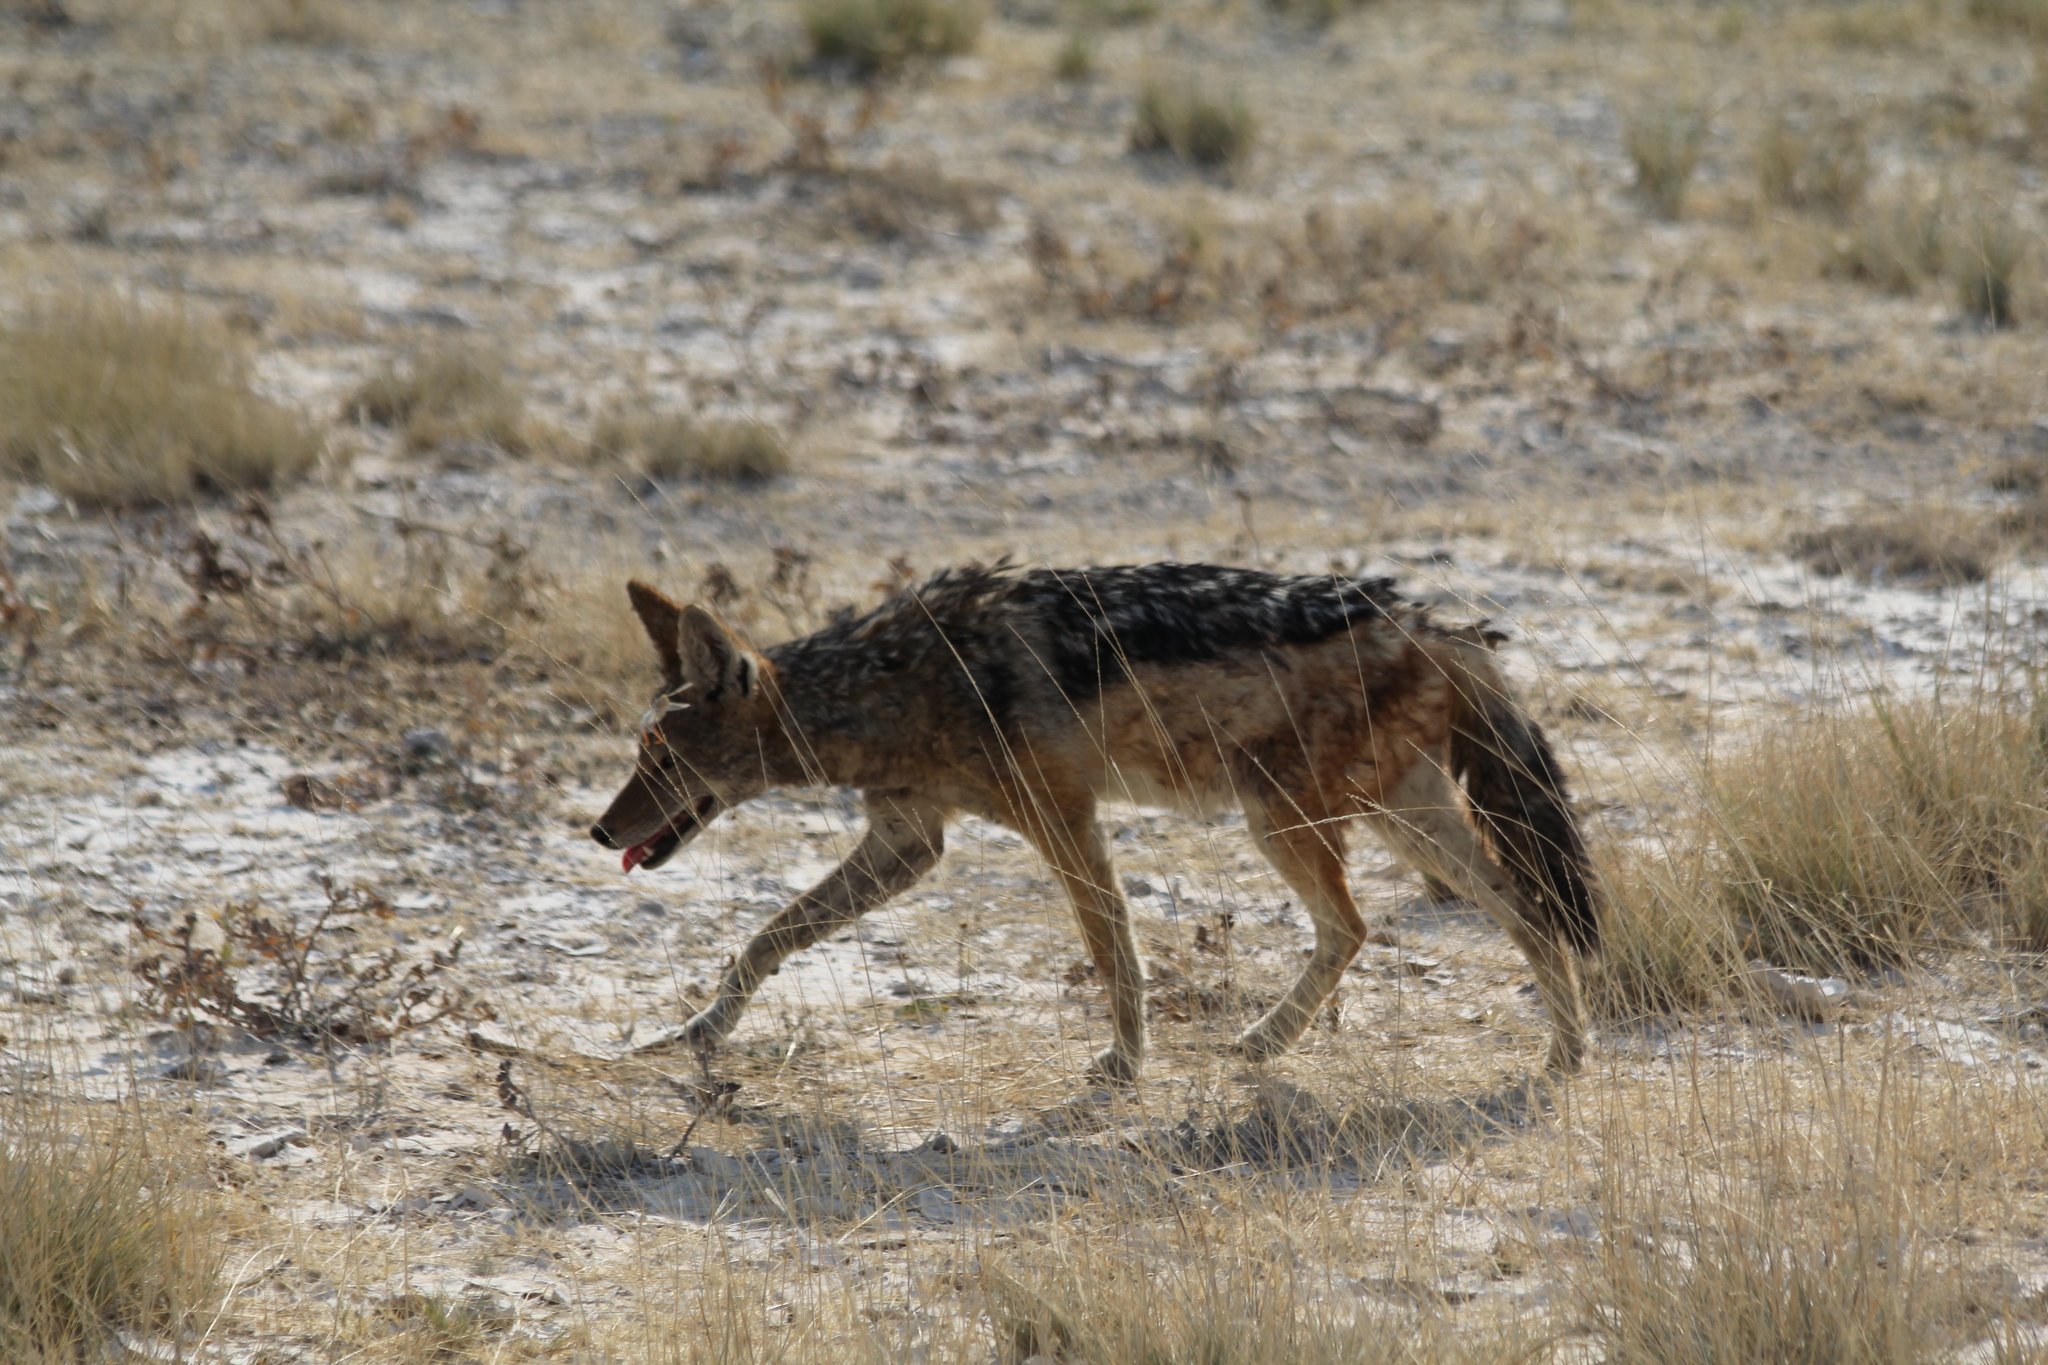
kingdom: Animalia
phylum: Chordata
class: Mammalia
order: Carnivora
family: Canidae
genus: Lupulella
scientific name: Lupulella
